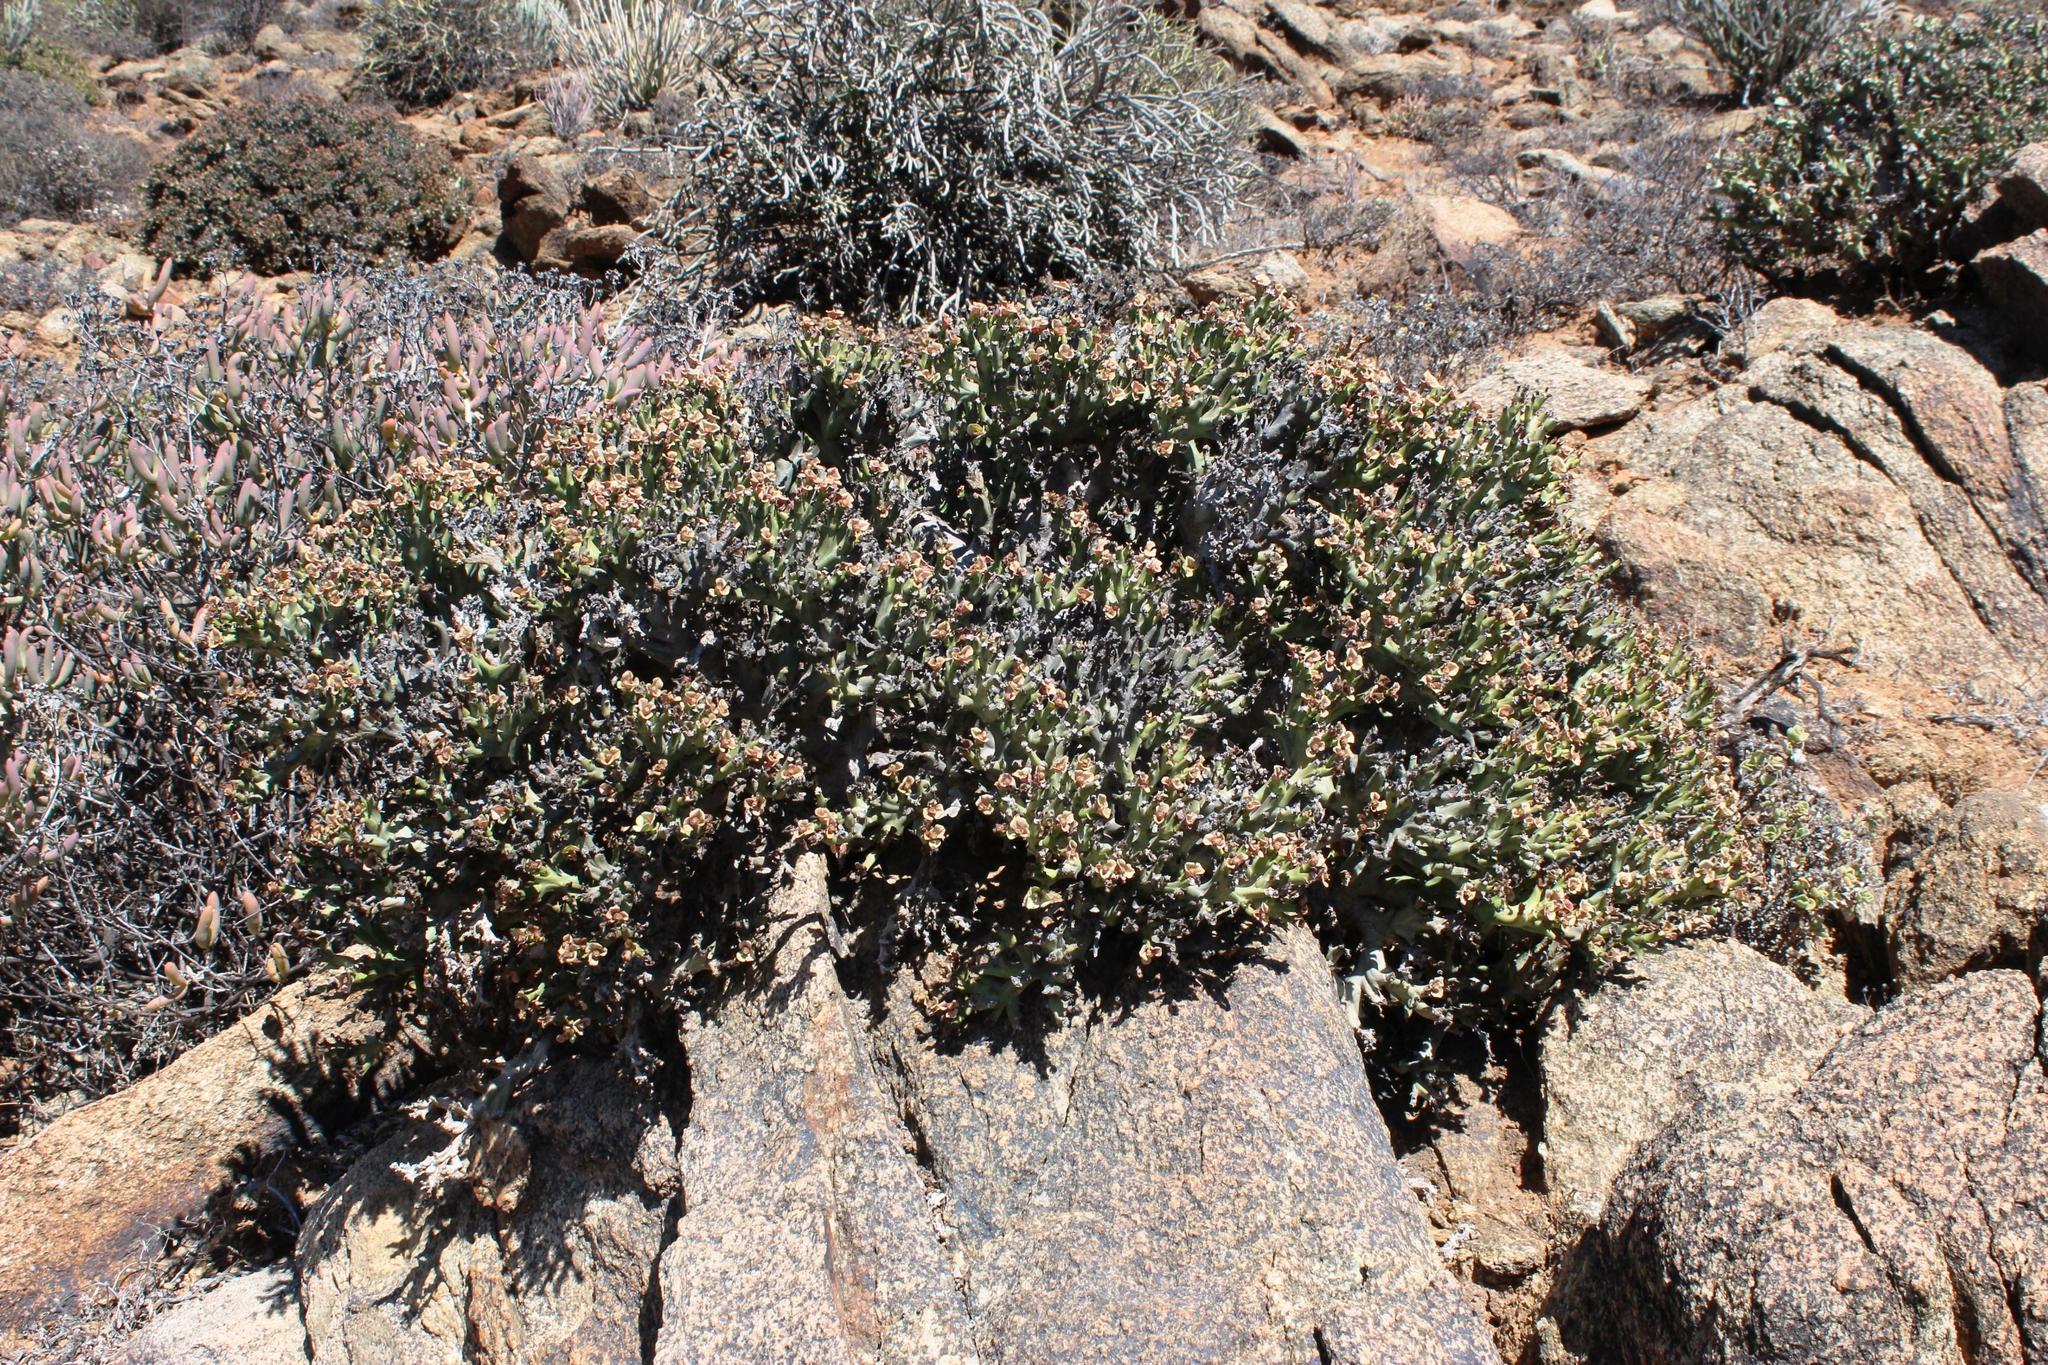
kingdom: Plantae
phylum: Tracheophyta
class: Magnoliopsida
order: Malpighiales
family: Euphorbiaceae
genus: Euphorbia
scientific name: Euphorbia hamata
